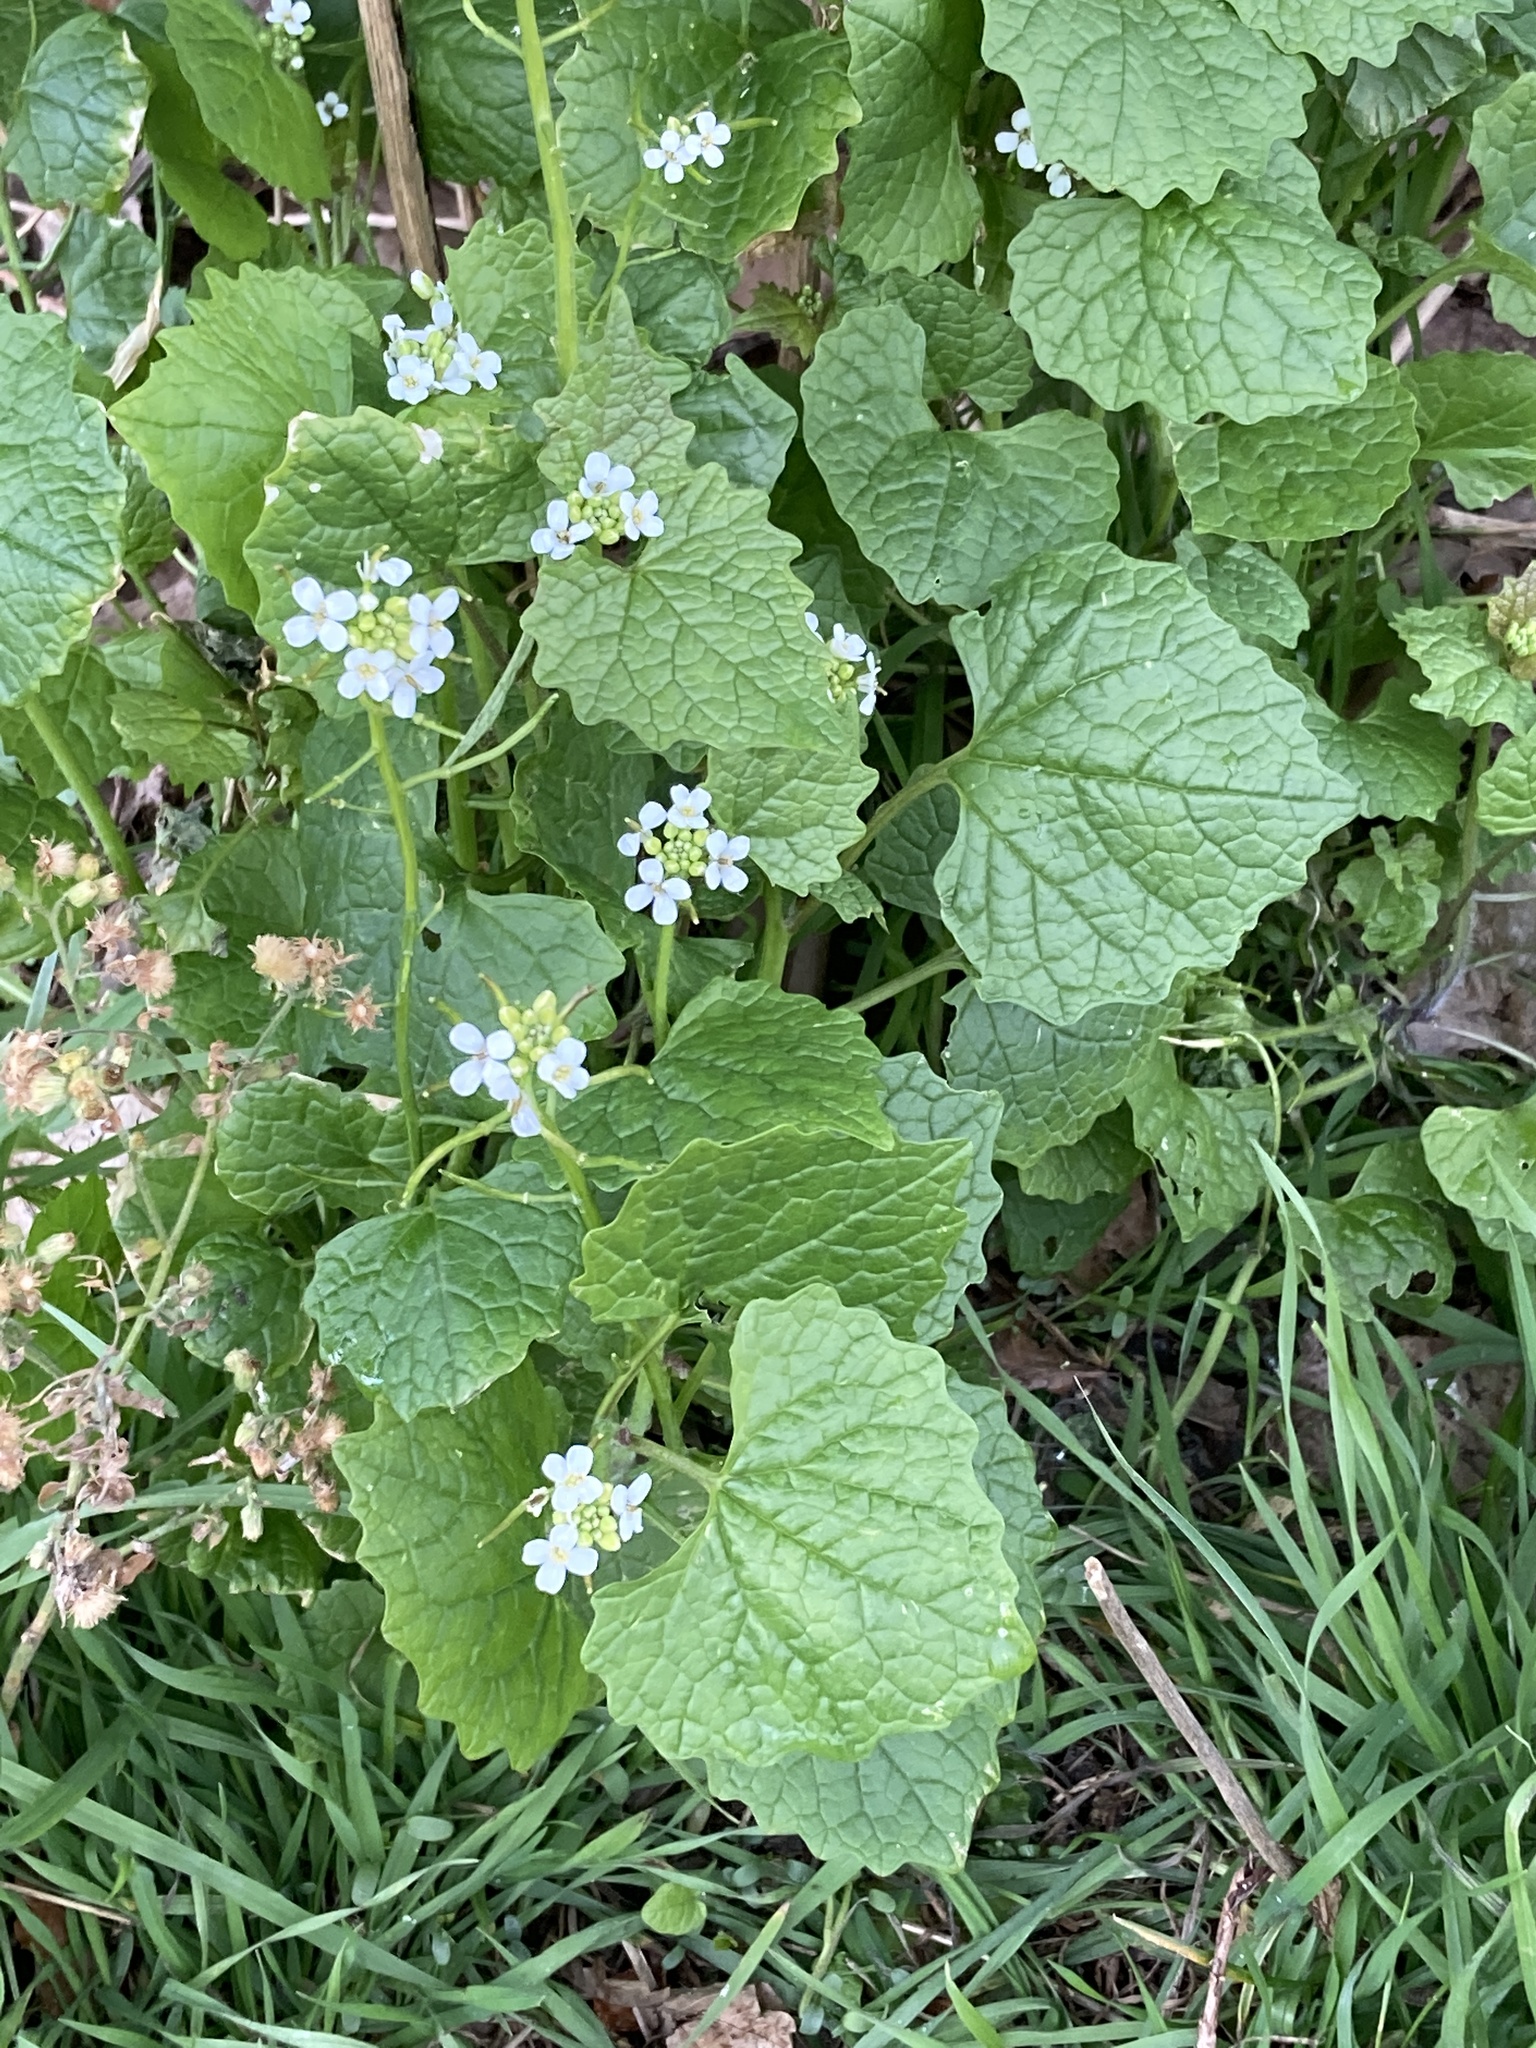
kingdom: Plantae
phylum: Tracheophyta
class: Magnoliopsida
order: Brassicales
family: Brassicaceae
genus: Alliaria
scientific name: Alliaria petiolata
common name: Garlic mustard
